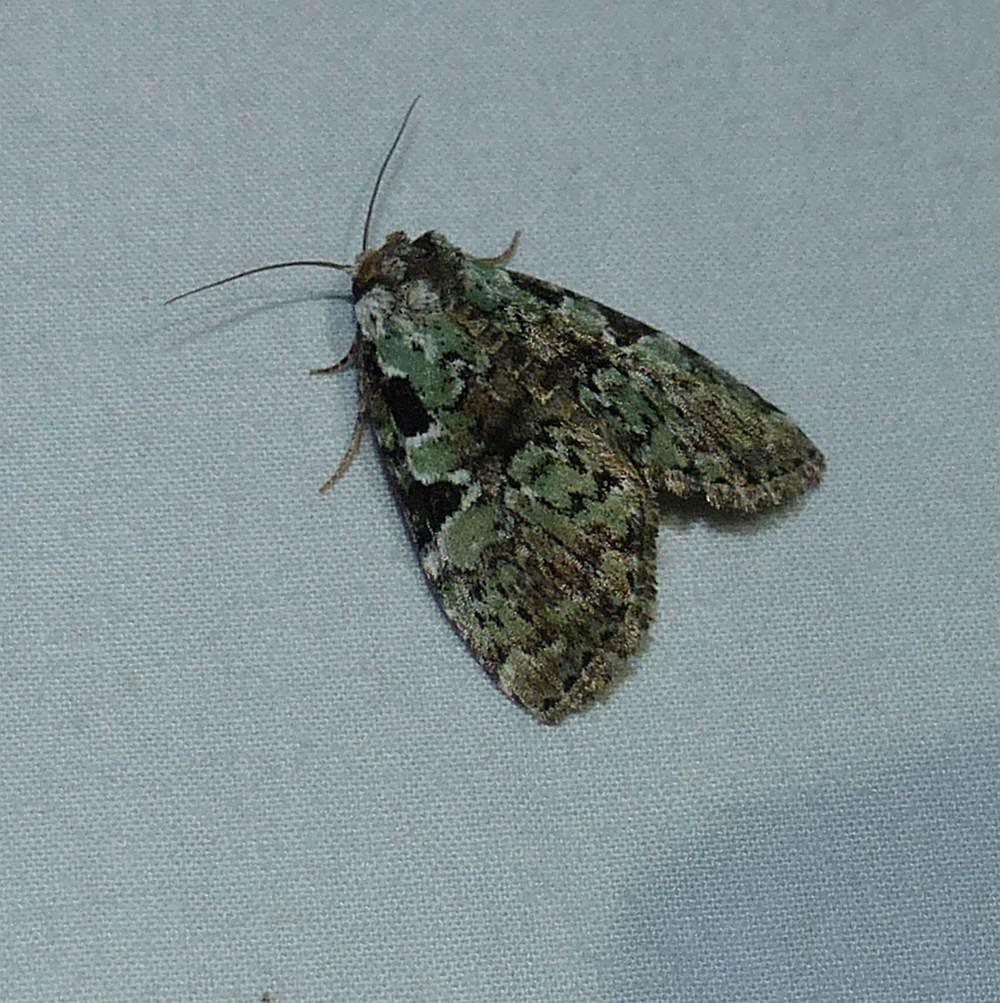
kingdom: Animalia
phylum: Arthropoda
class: Insecta
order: Lepidoptera
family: Noctuidae
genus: Leuconycta
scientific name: Leuconycta lepidula
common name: Marbled-green leuconycta moth
